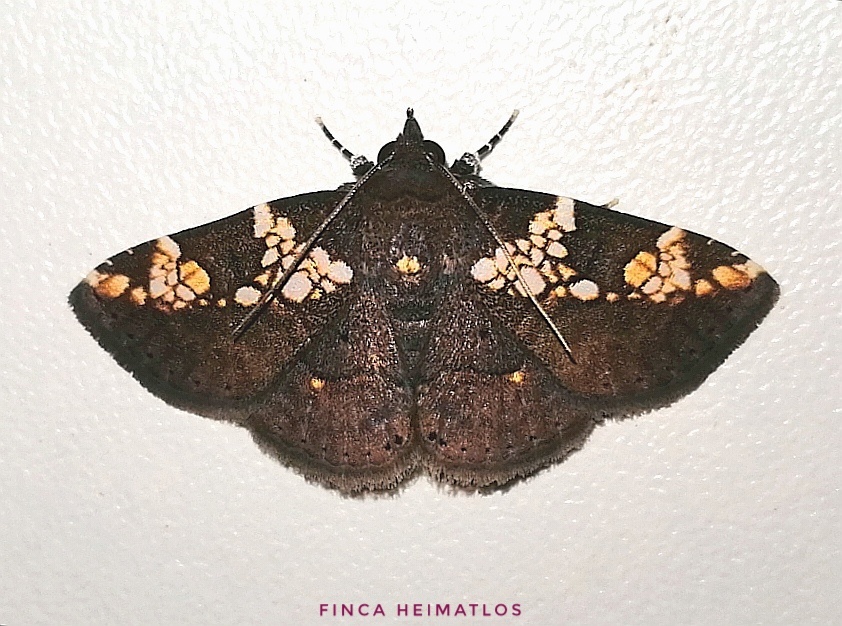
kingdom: Animalia
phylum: Arthropoda
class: Insecta
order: Lepidoptera
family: Erebidae
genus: Antiblemma
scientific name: Antiblemma perornata
